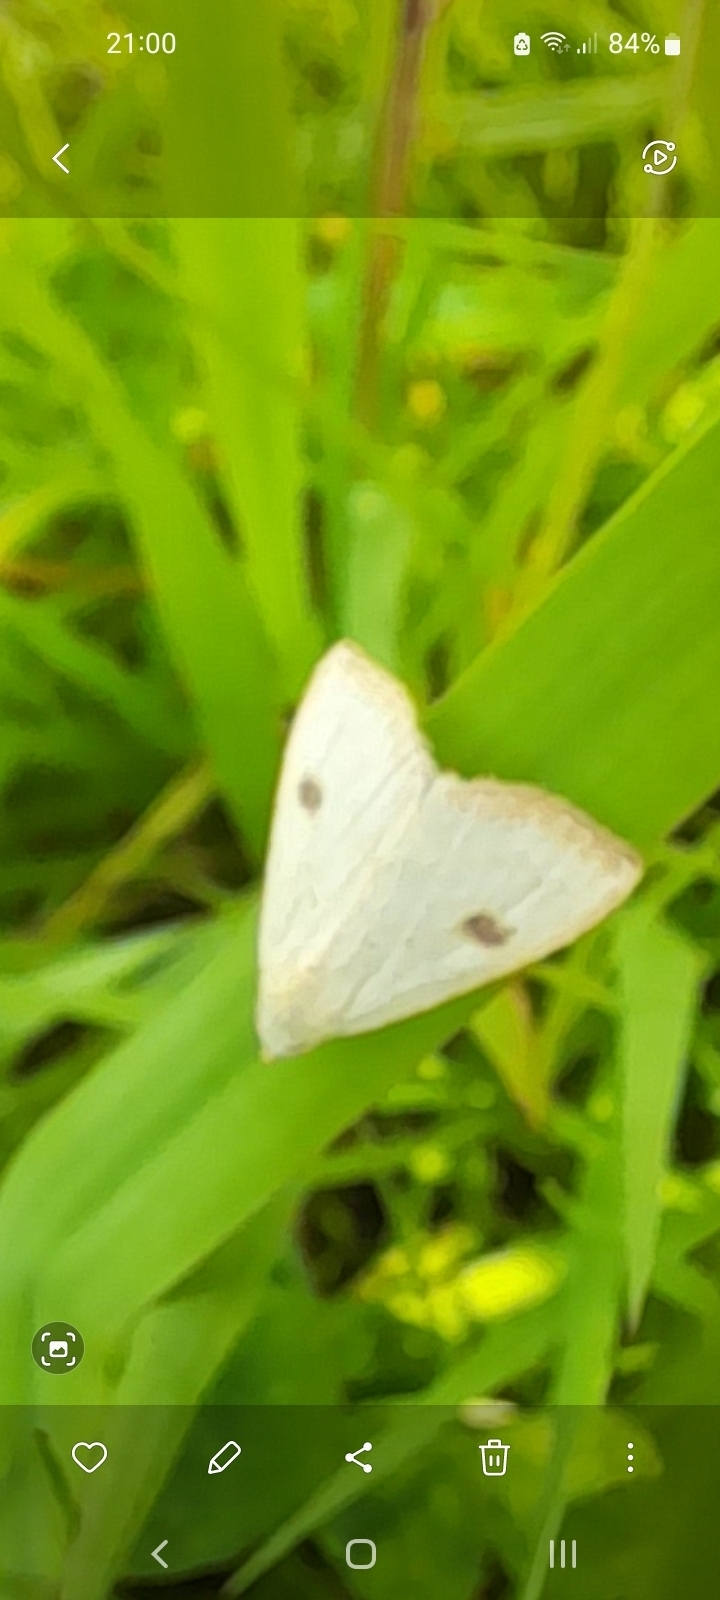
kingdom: Animalia
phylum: Arthropoda
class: Insecta
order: Lepidoptera
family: Erebidae
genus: Rivula
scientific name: Rivula sericealis
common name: Straw dot
